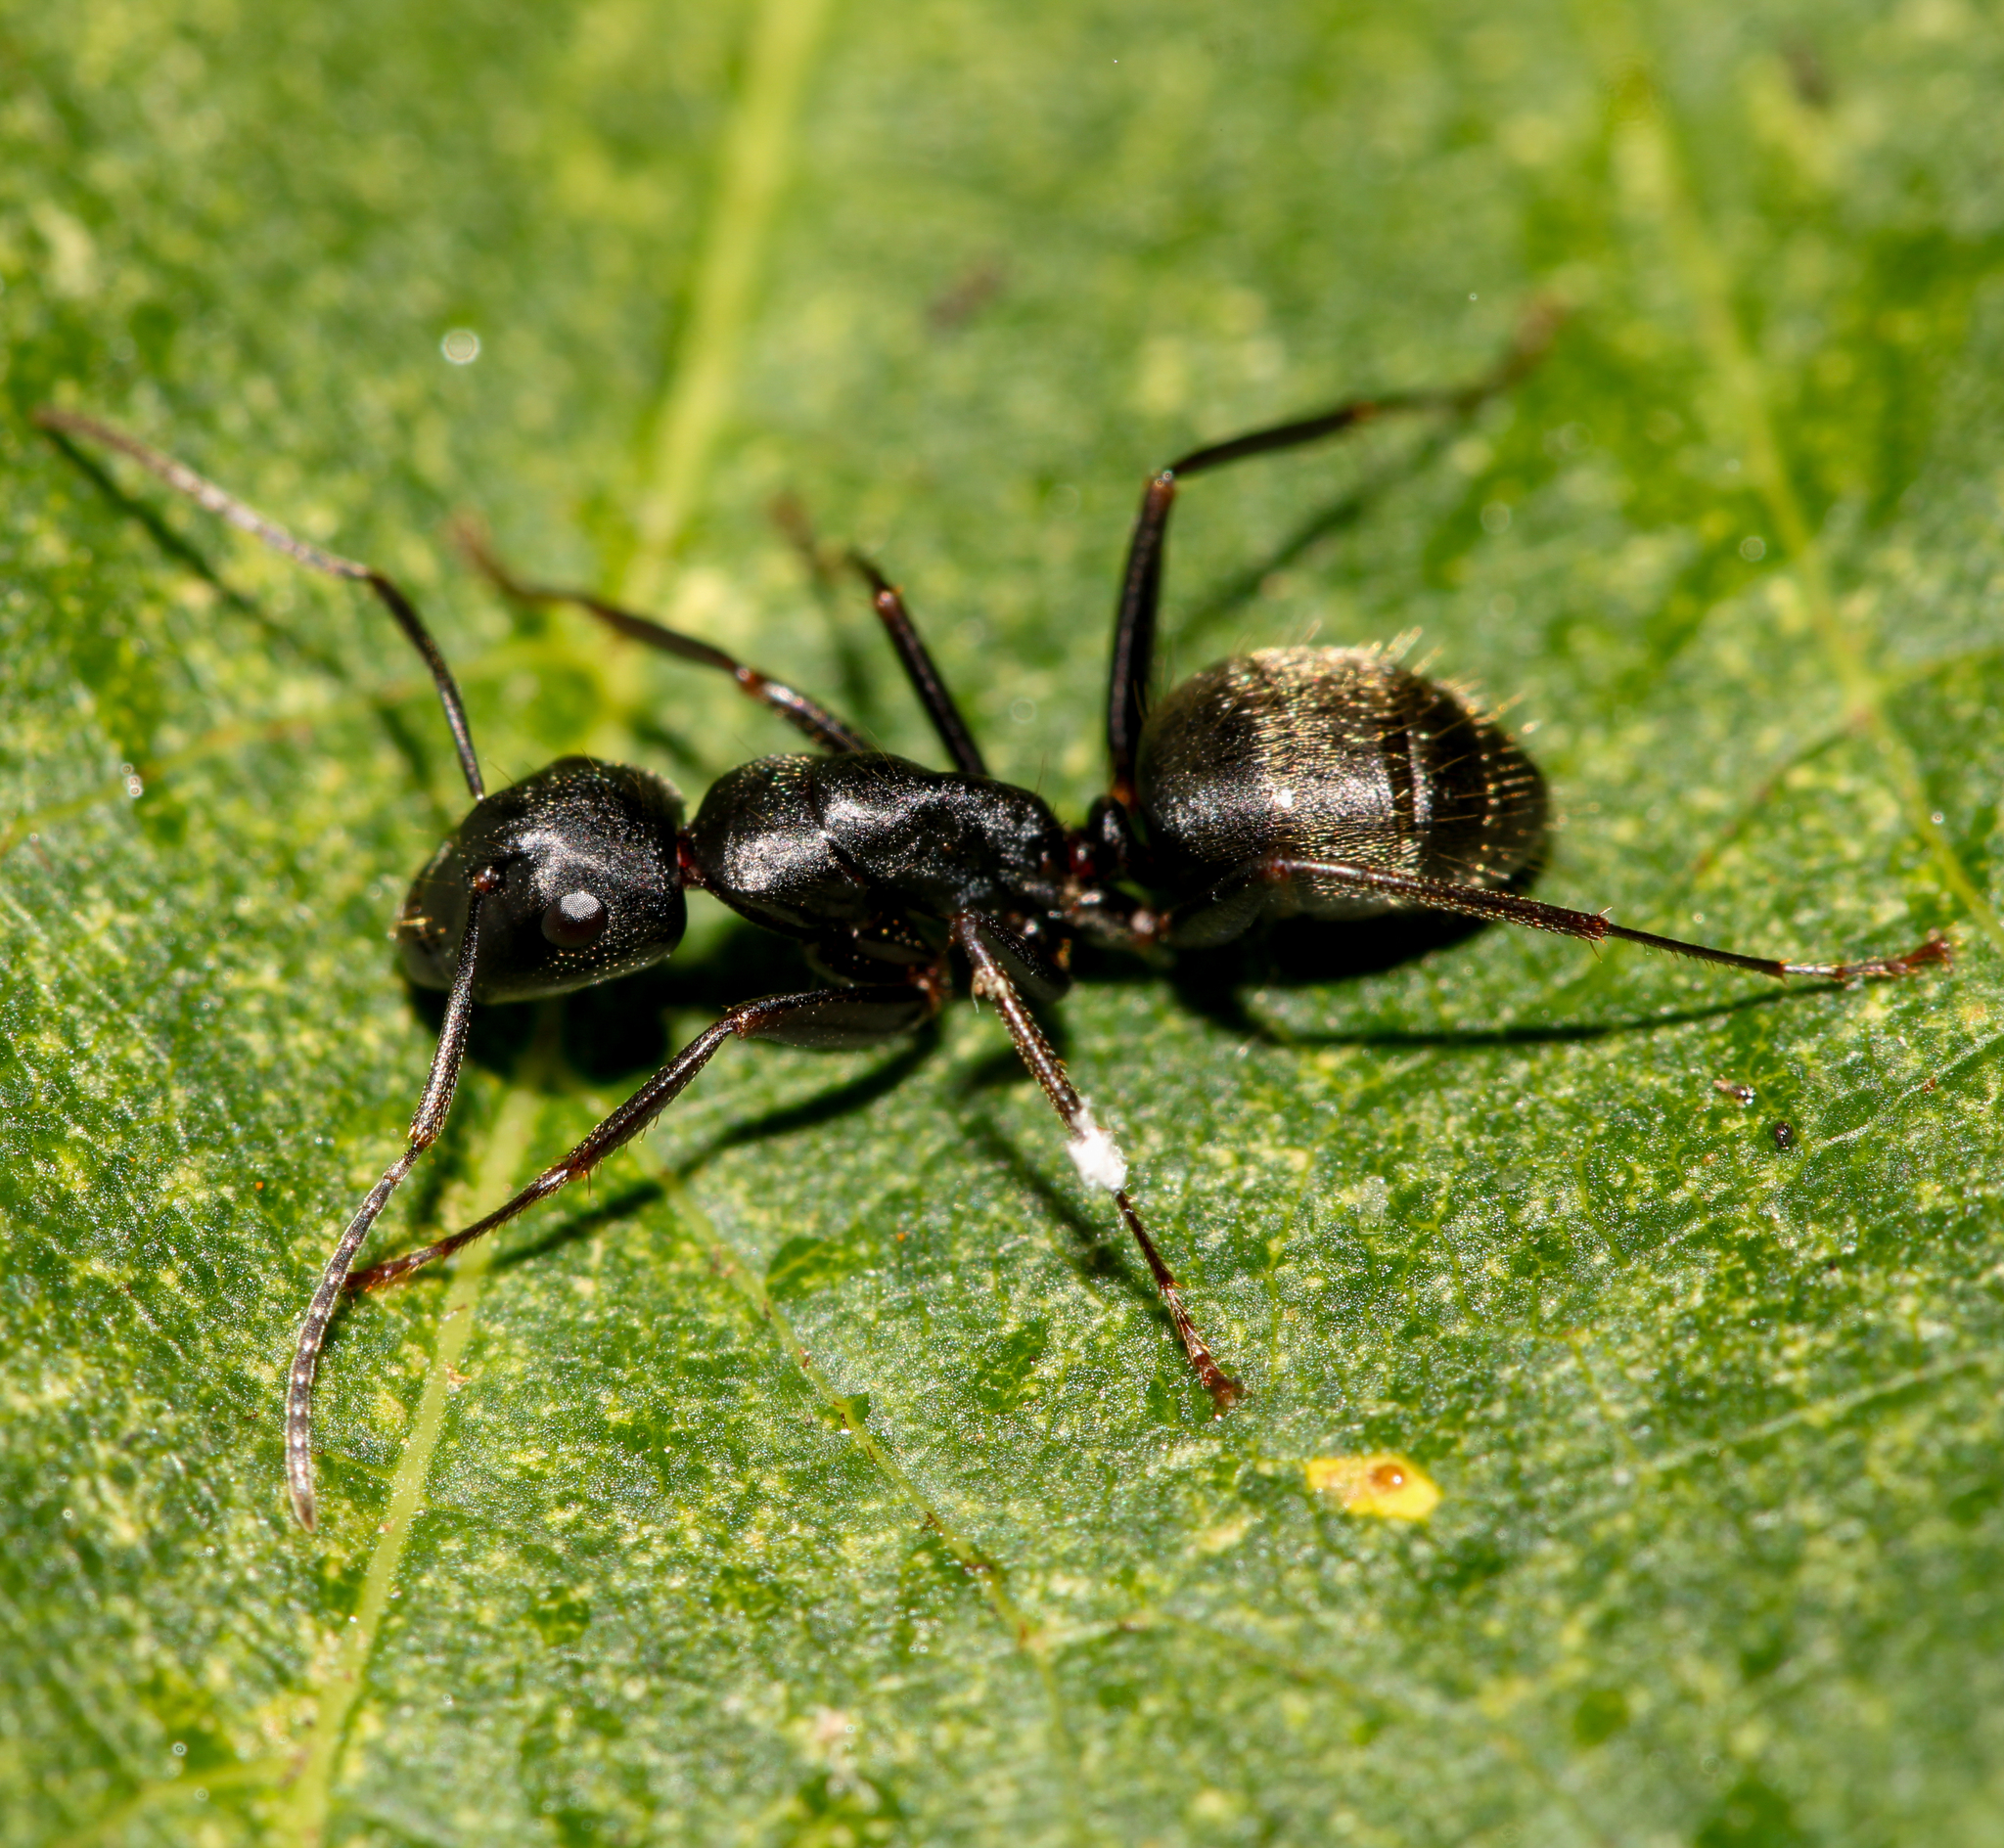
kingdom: Animalia
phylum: Arthropoda
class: Insecta
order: Hymenoptera
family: Formicidae
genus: Camponotus
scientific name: Camponotus pennsylvanicus
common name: Black carpenter ant
